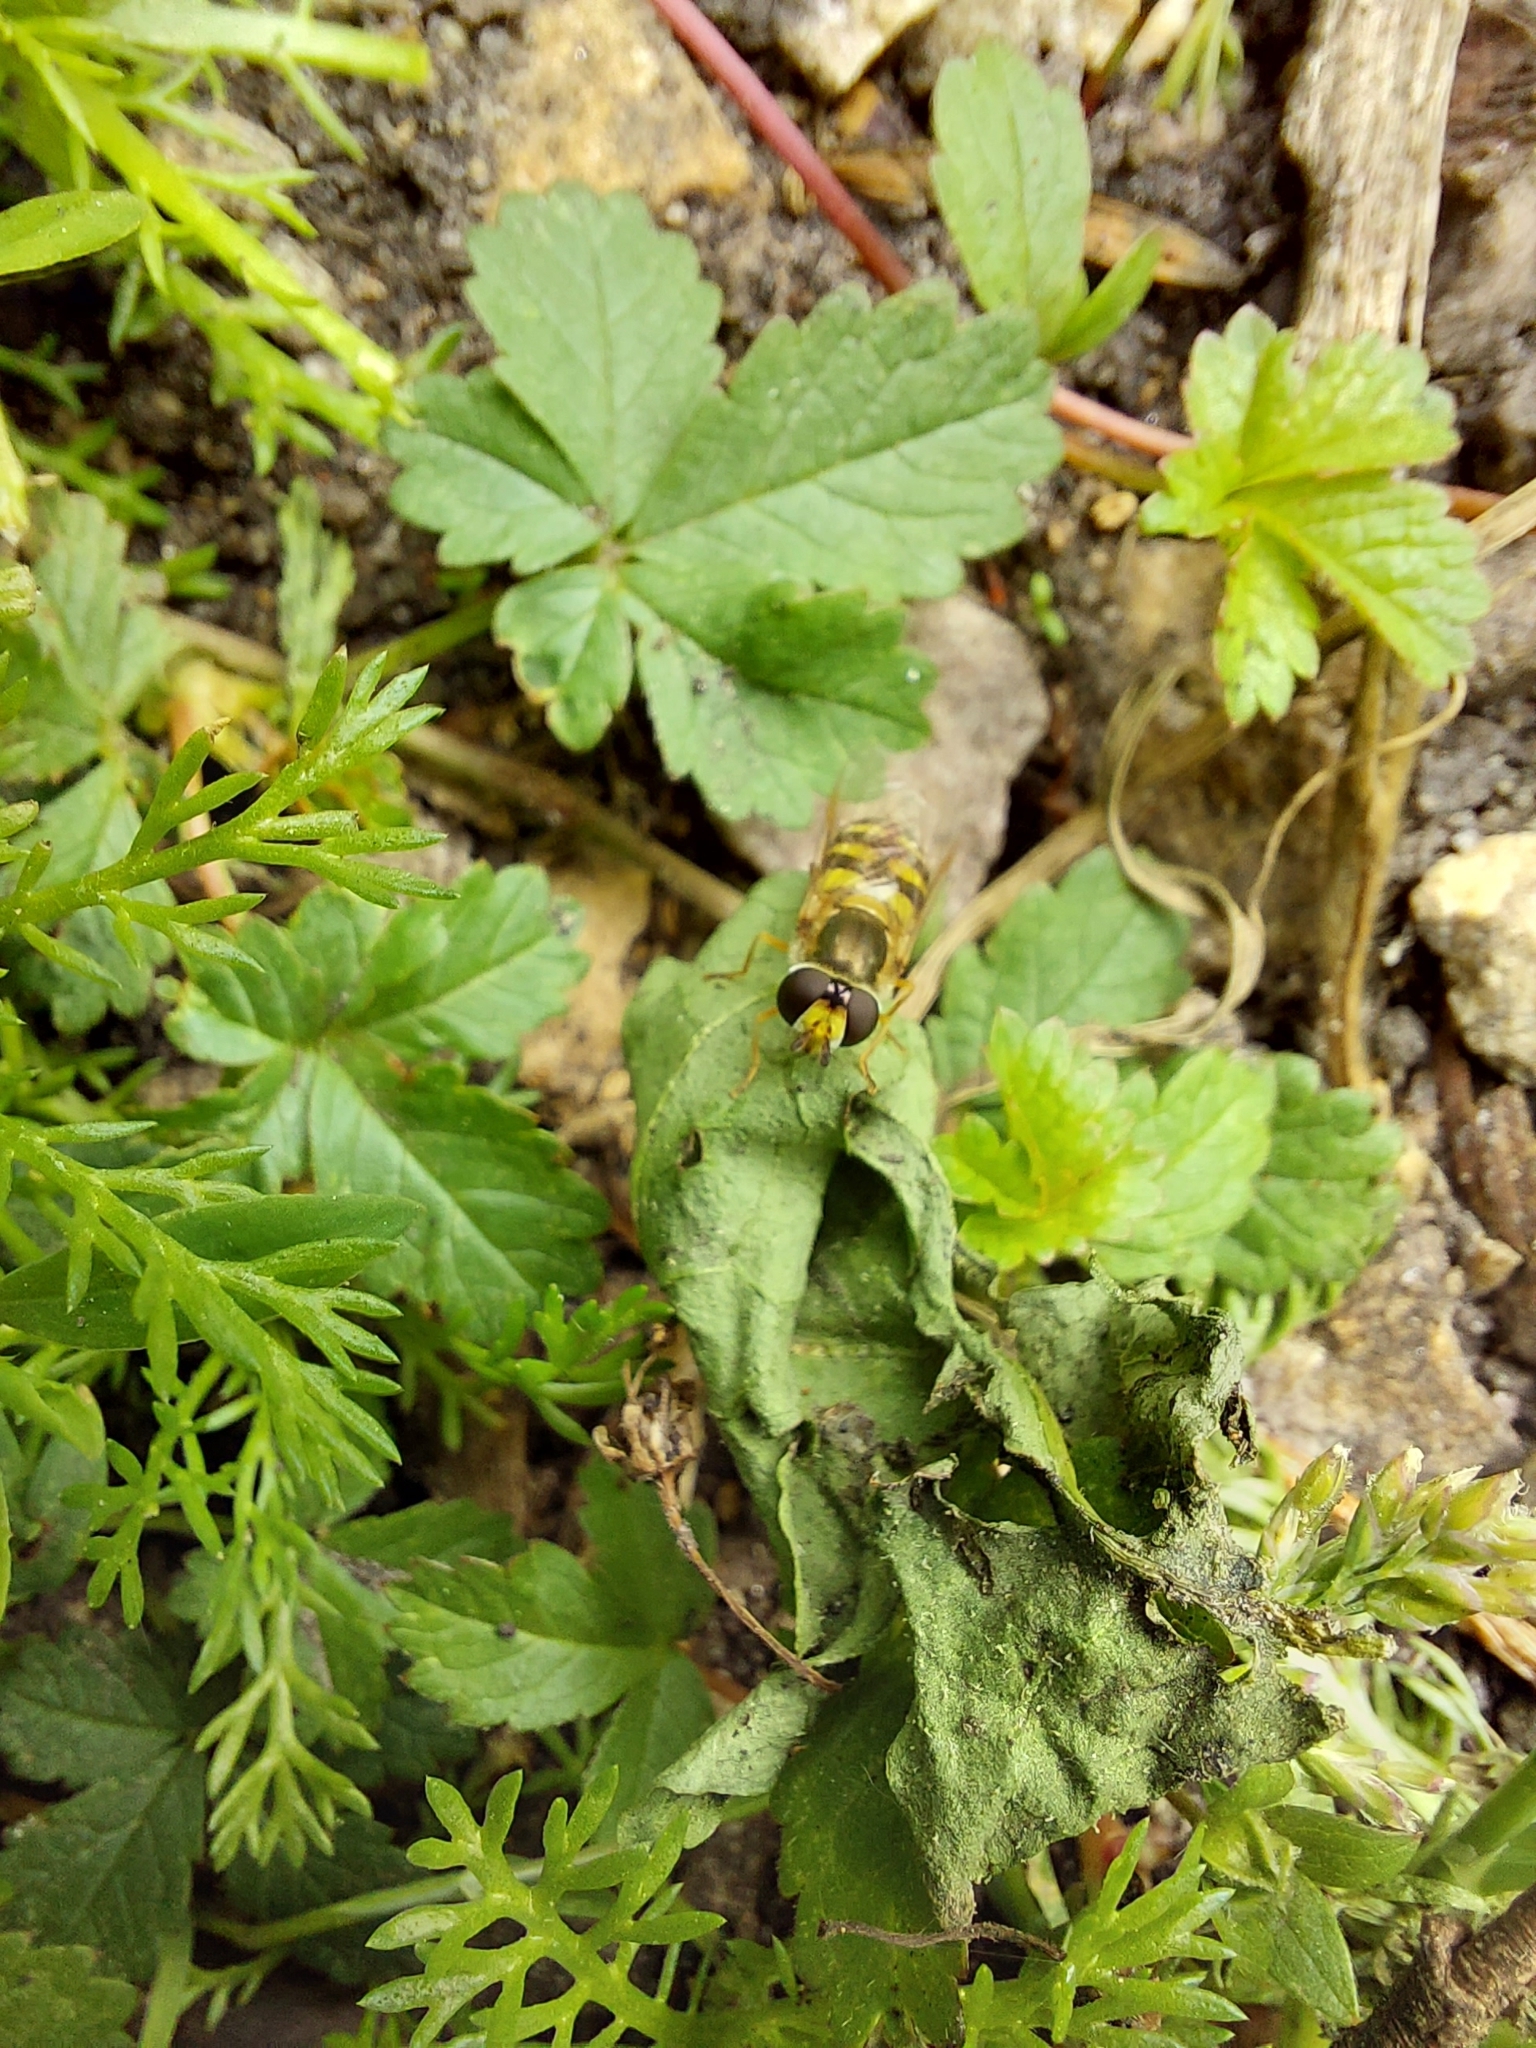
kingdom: Animalia
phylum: Arthropoda
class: Insecta
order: Diptera
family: Syrphidae
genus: Eupeodes
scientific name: Eupeodes
